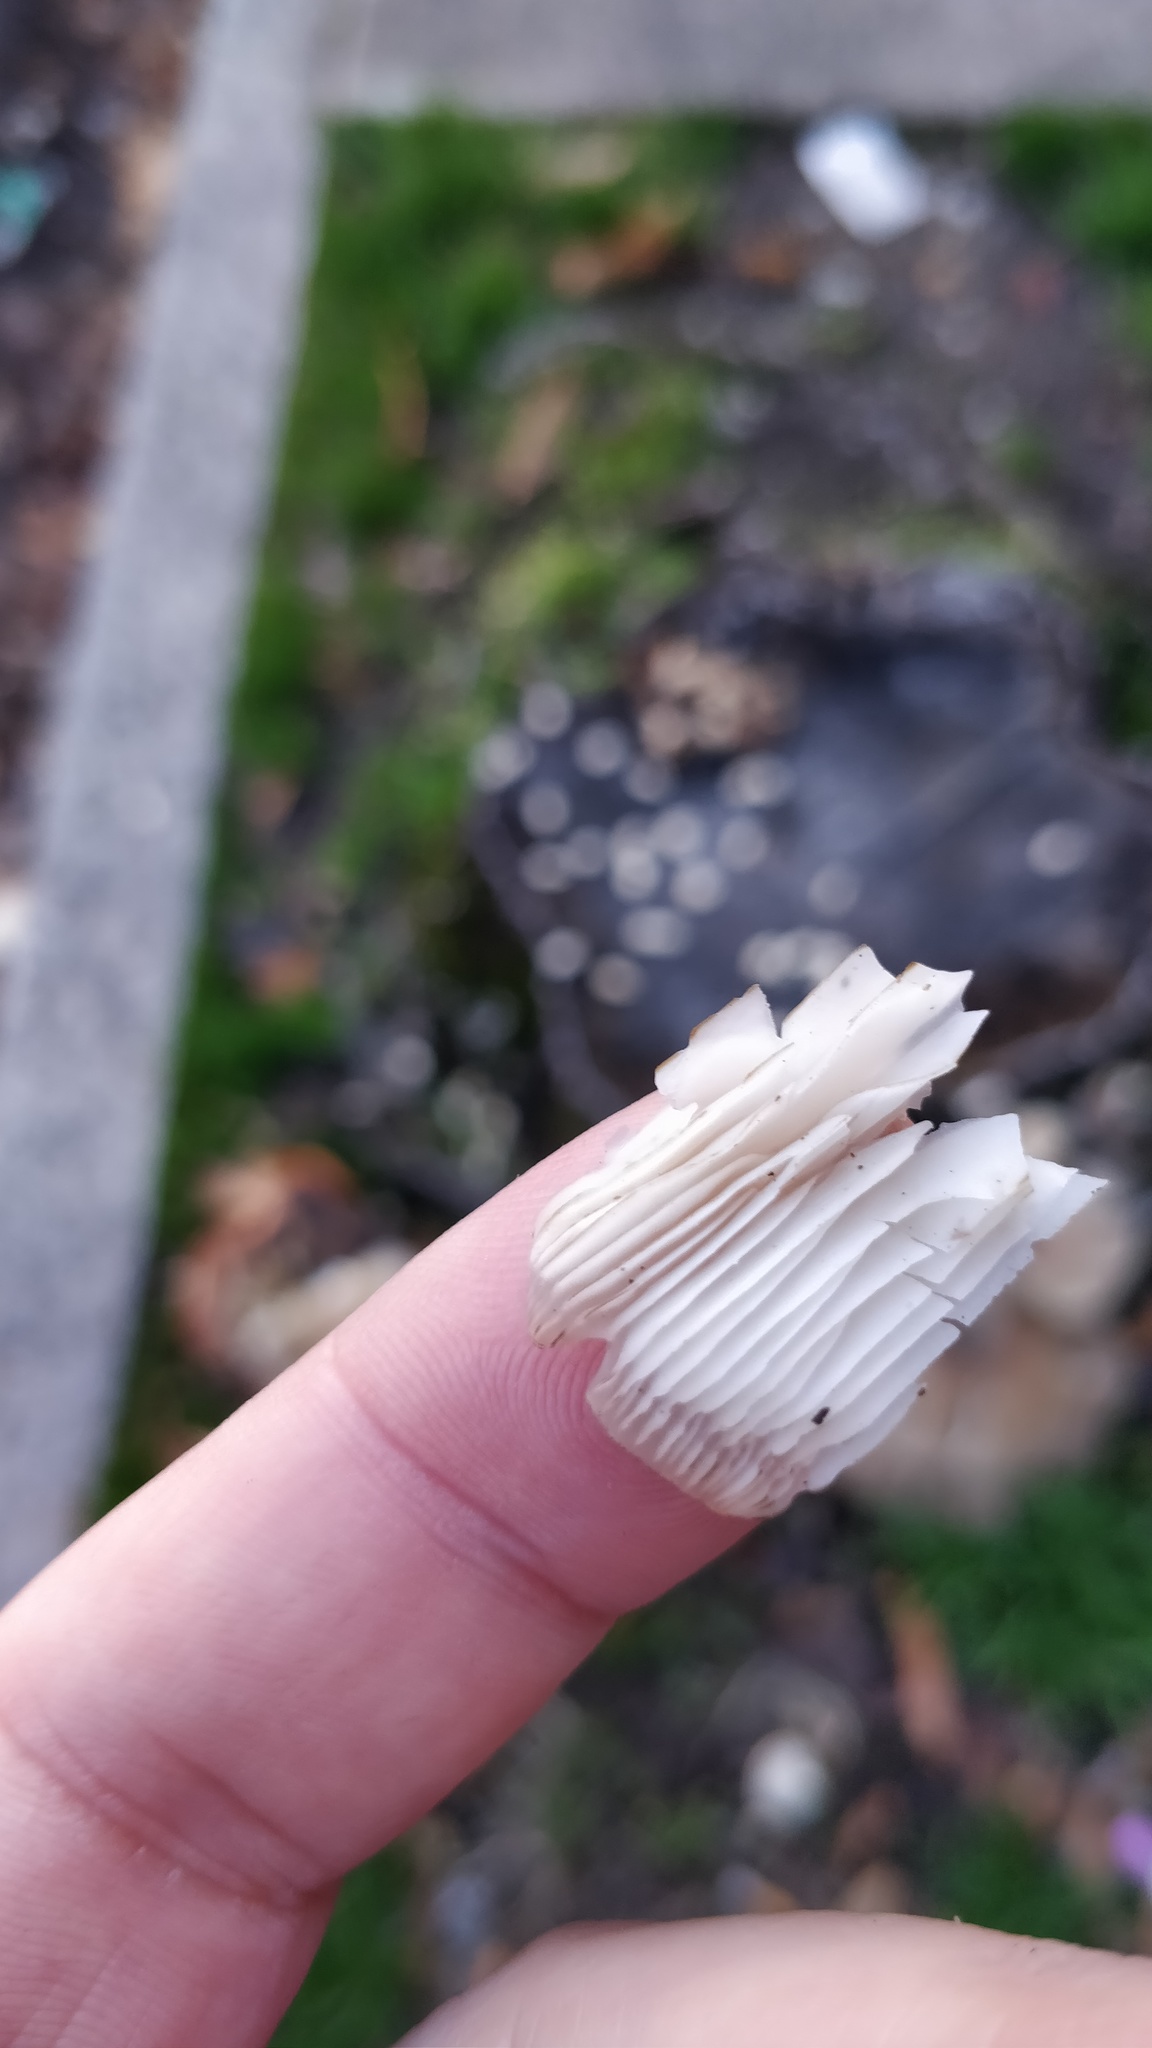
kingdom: Fungi
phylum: Basidiomycota
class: Agaricomycetes
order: Agaricales
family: Pleurotaceae
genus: Pleurotus
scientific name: Pleurotus ostreatus
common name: Oyster mushroom
